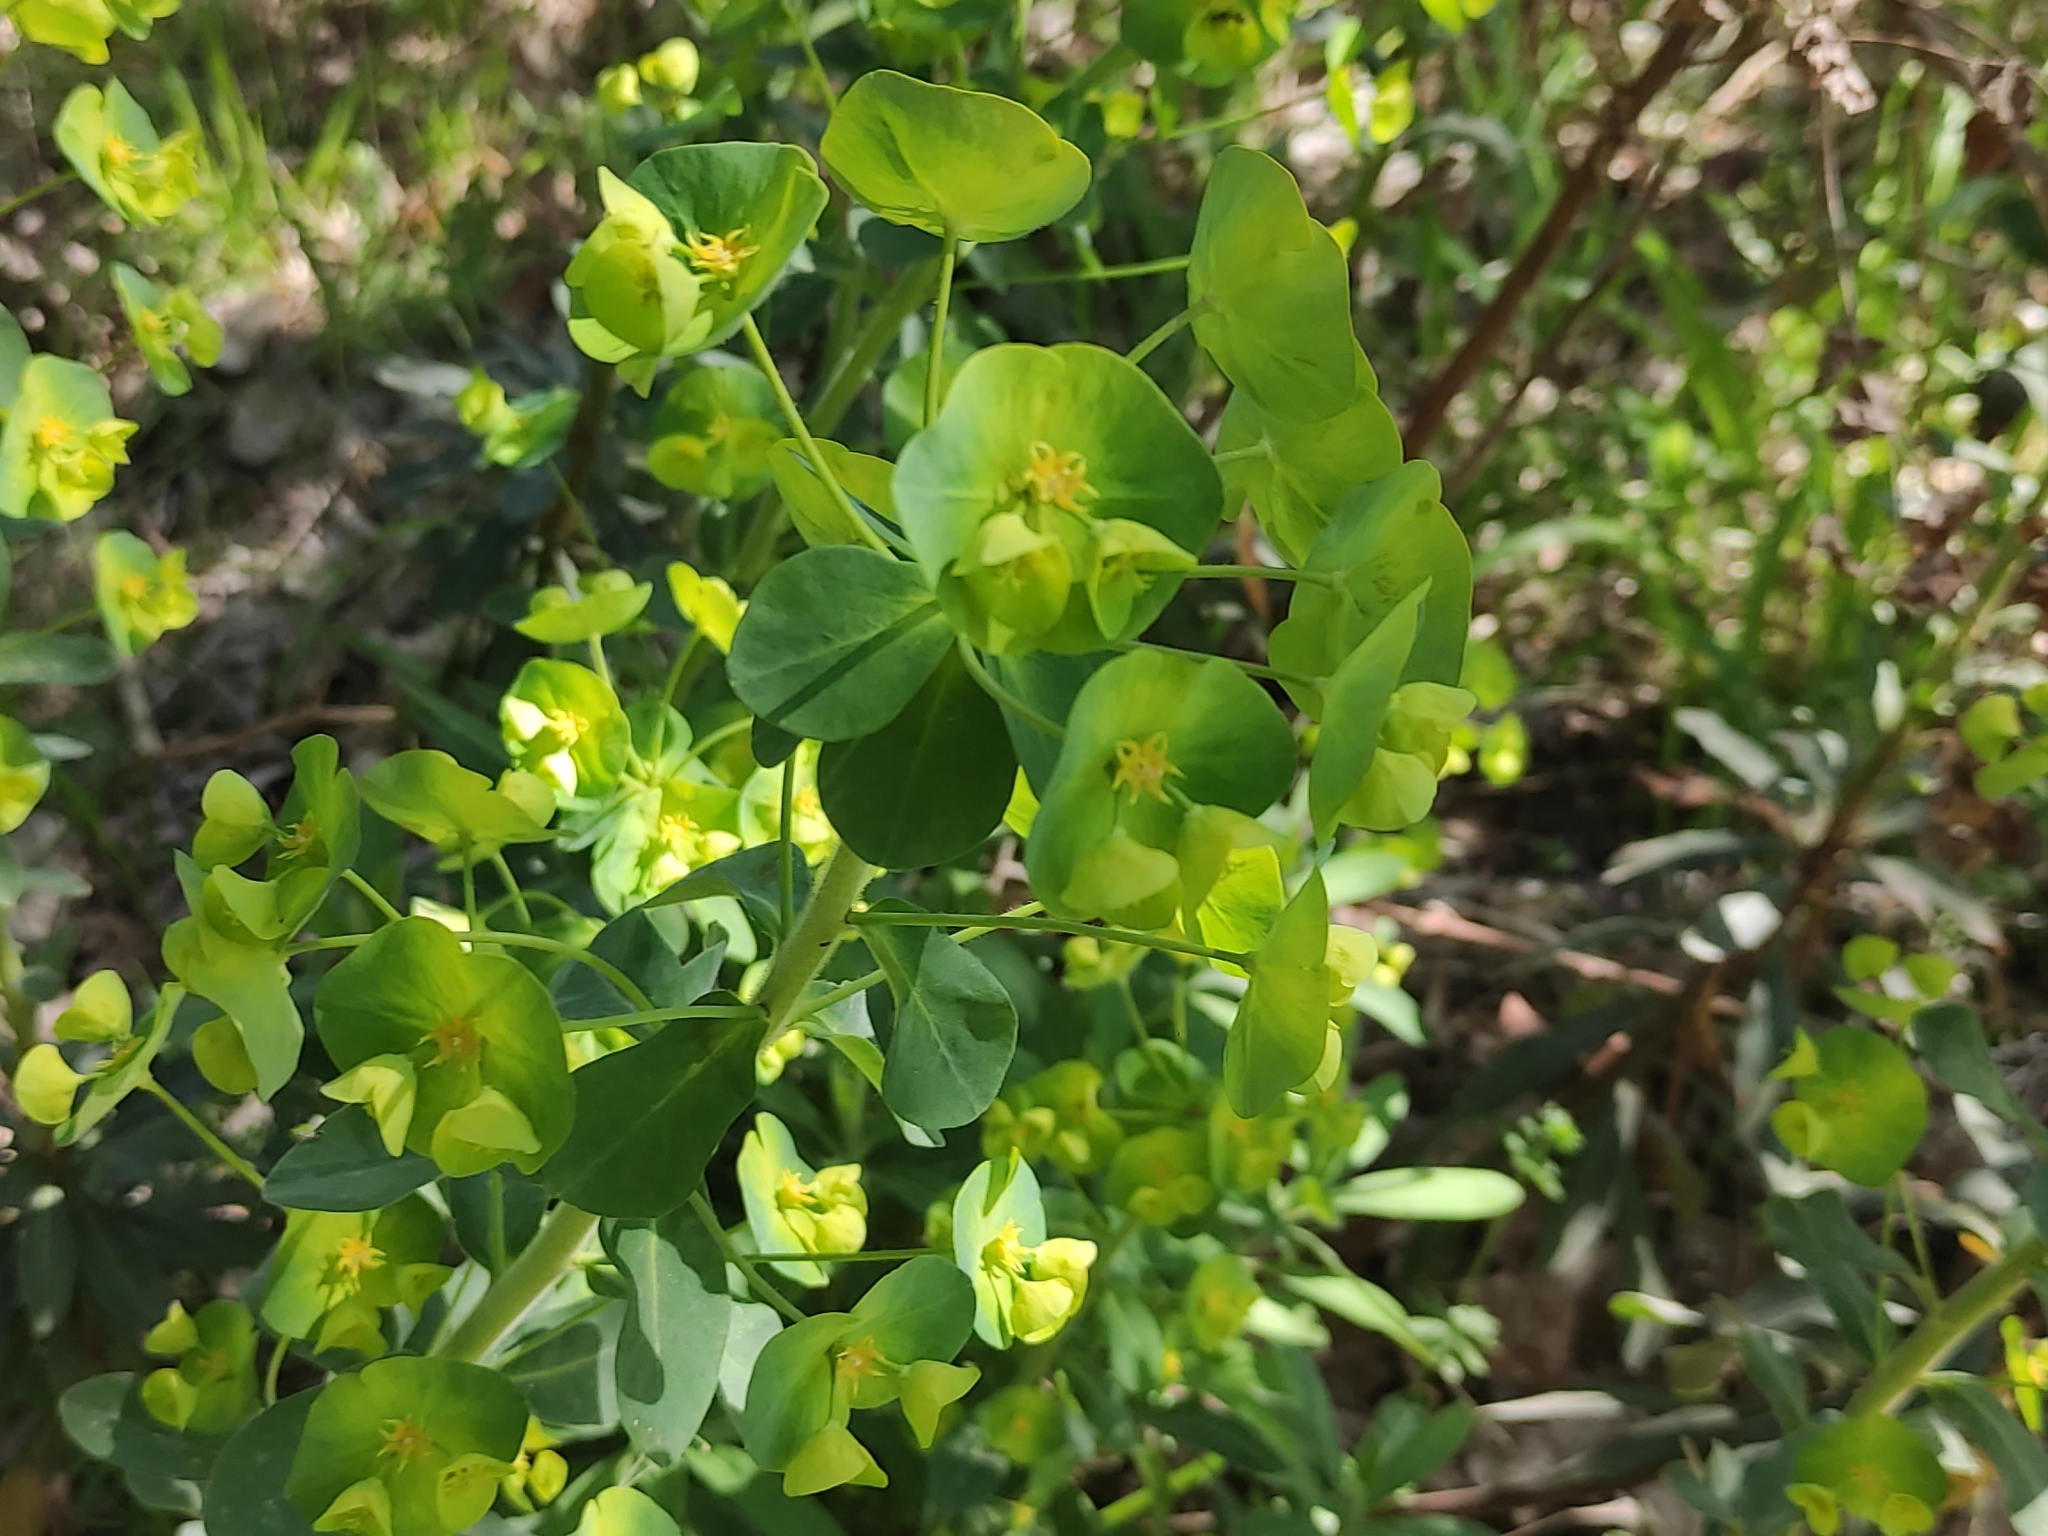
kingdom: Plantae
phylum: Tracheophyta
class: Magnoliopsida
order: Malpighiales
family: Euphorbiaceae
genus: Euphorbia
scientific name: Euphorbia amygdaloides
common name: Wood spurge
